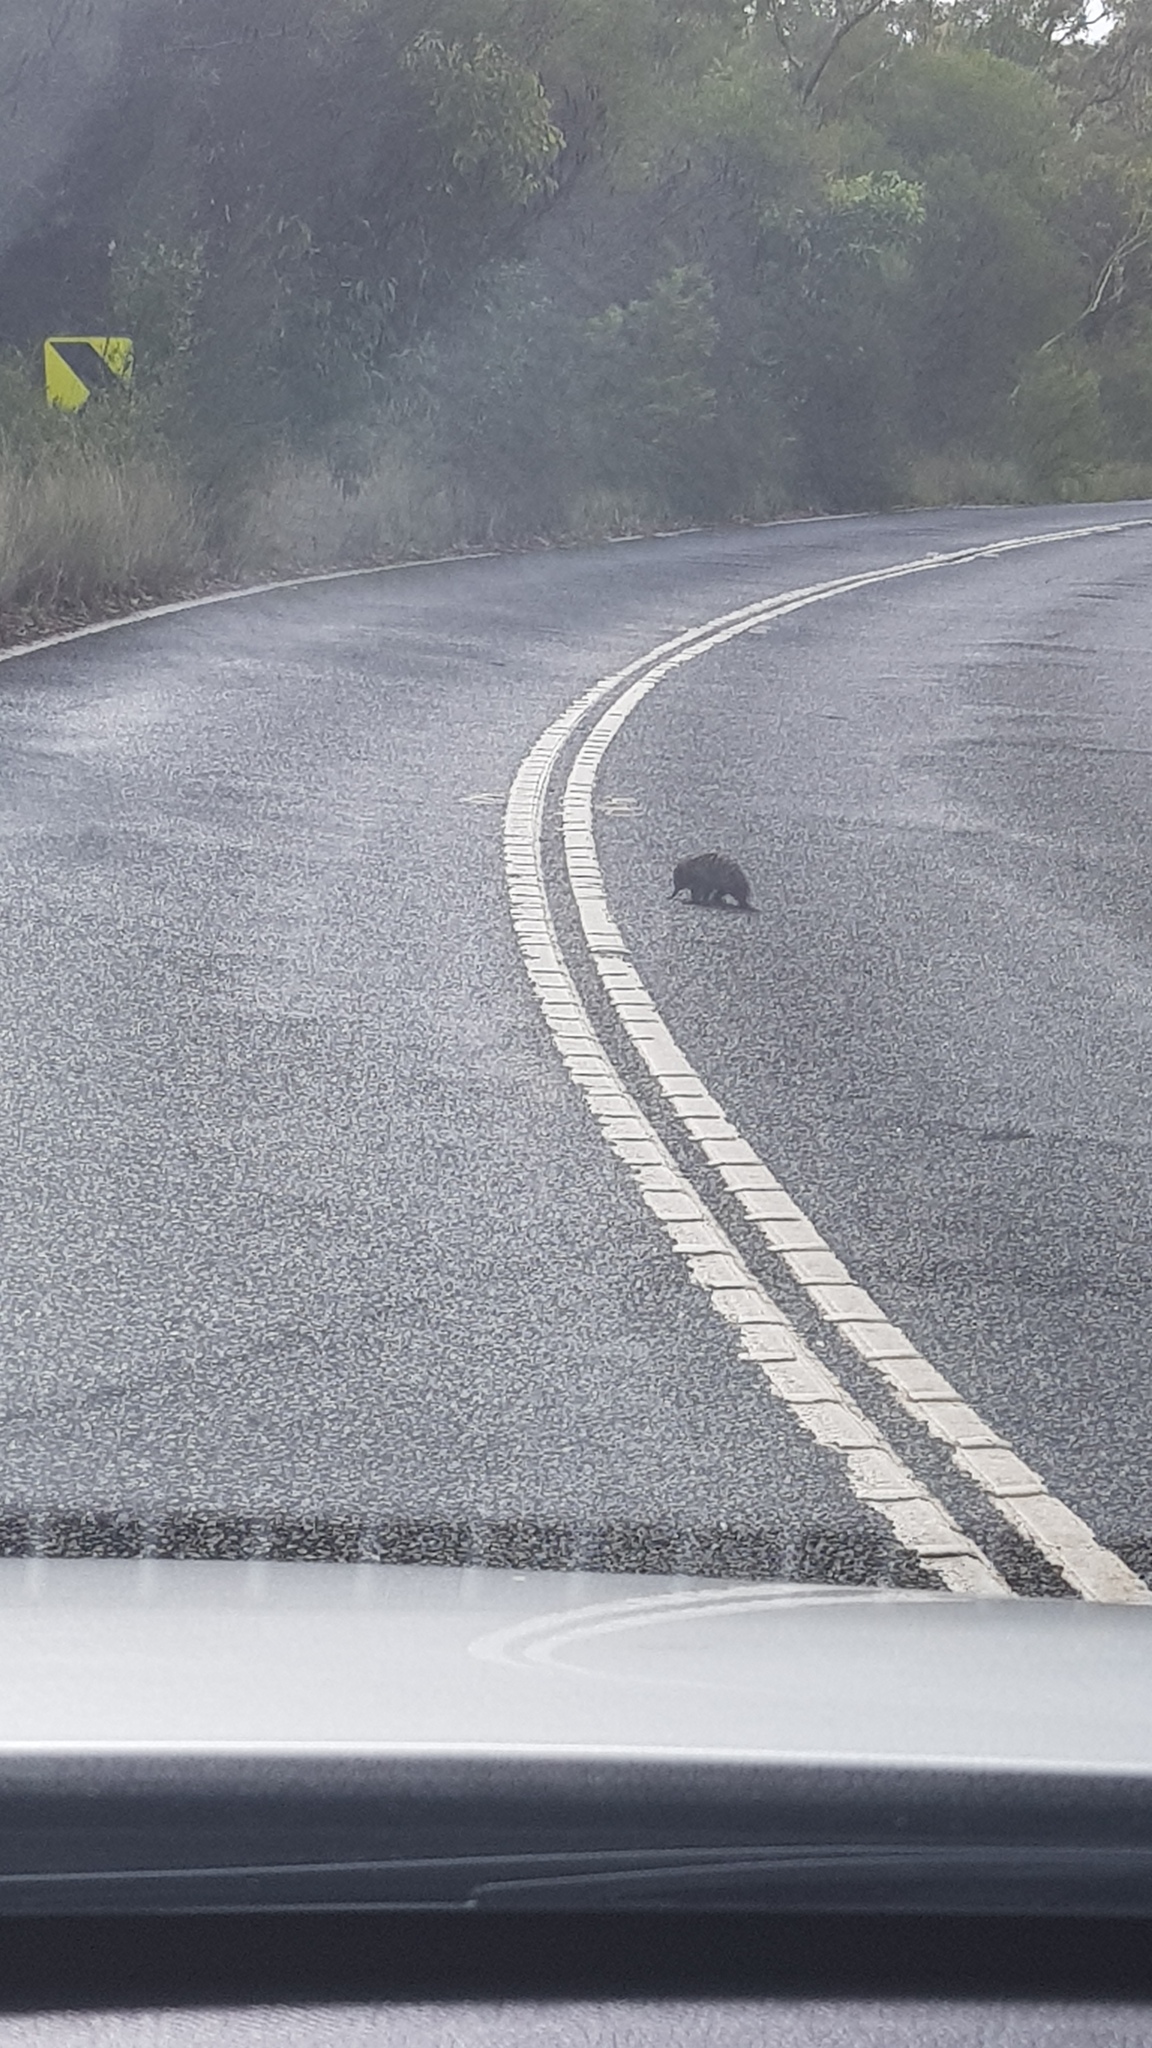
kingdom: Animalia
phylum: Chordata
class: Mammalia
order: Monotremata
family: Tachyglossidae
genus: Tachyglossus
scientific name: Tachyglossus aculeatus
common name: Short-beaked echidna
